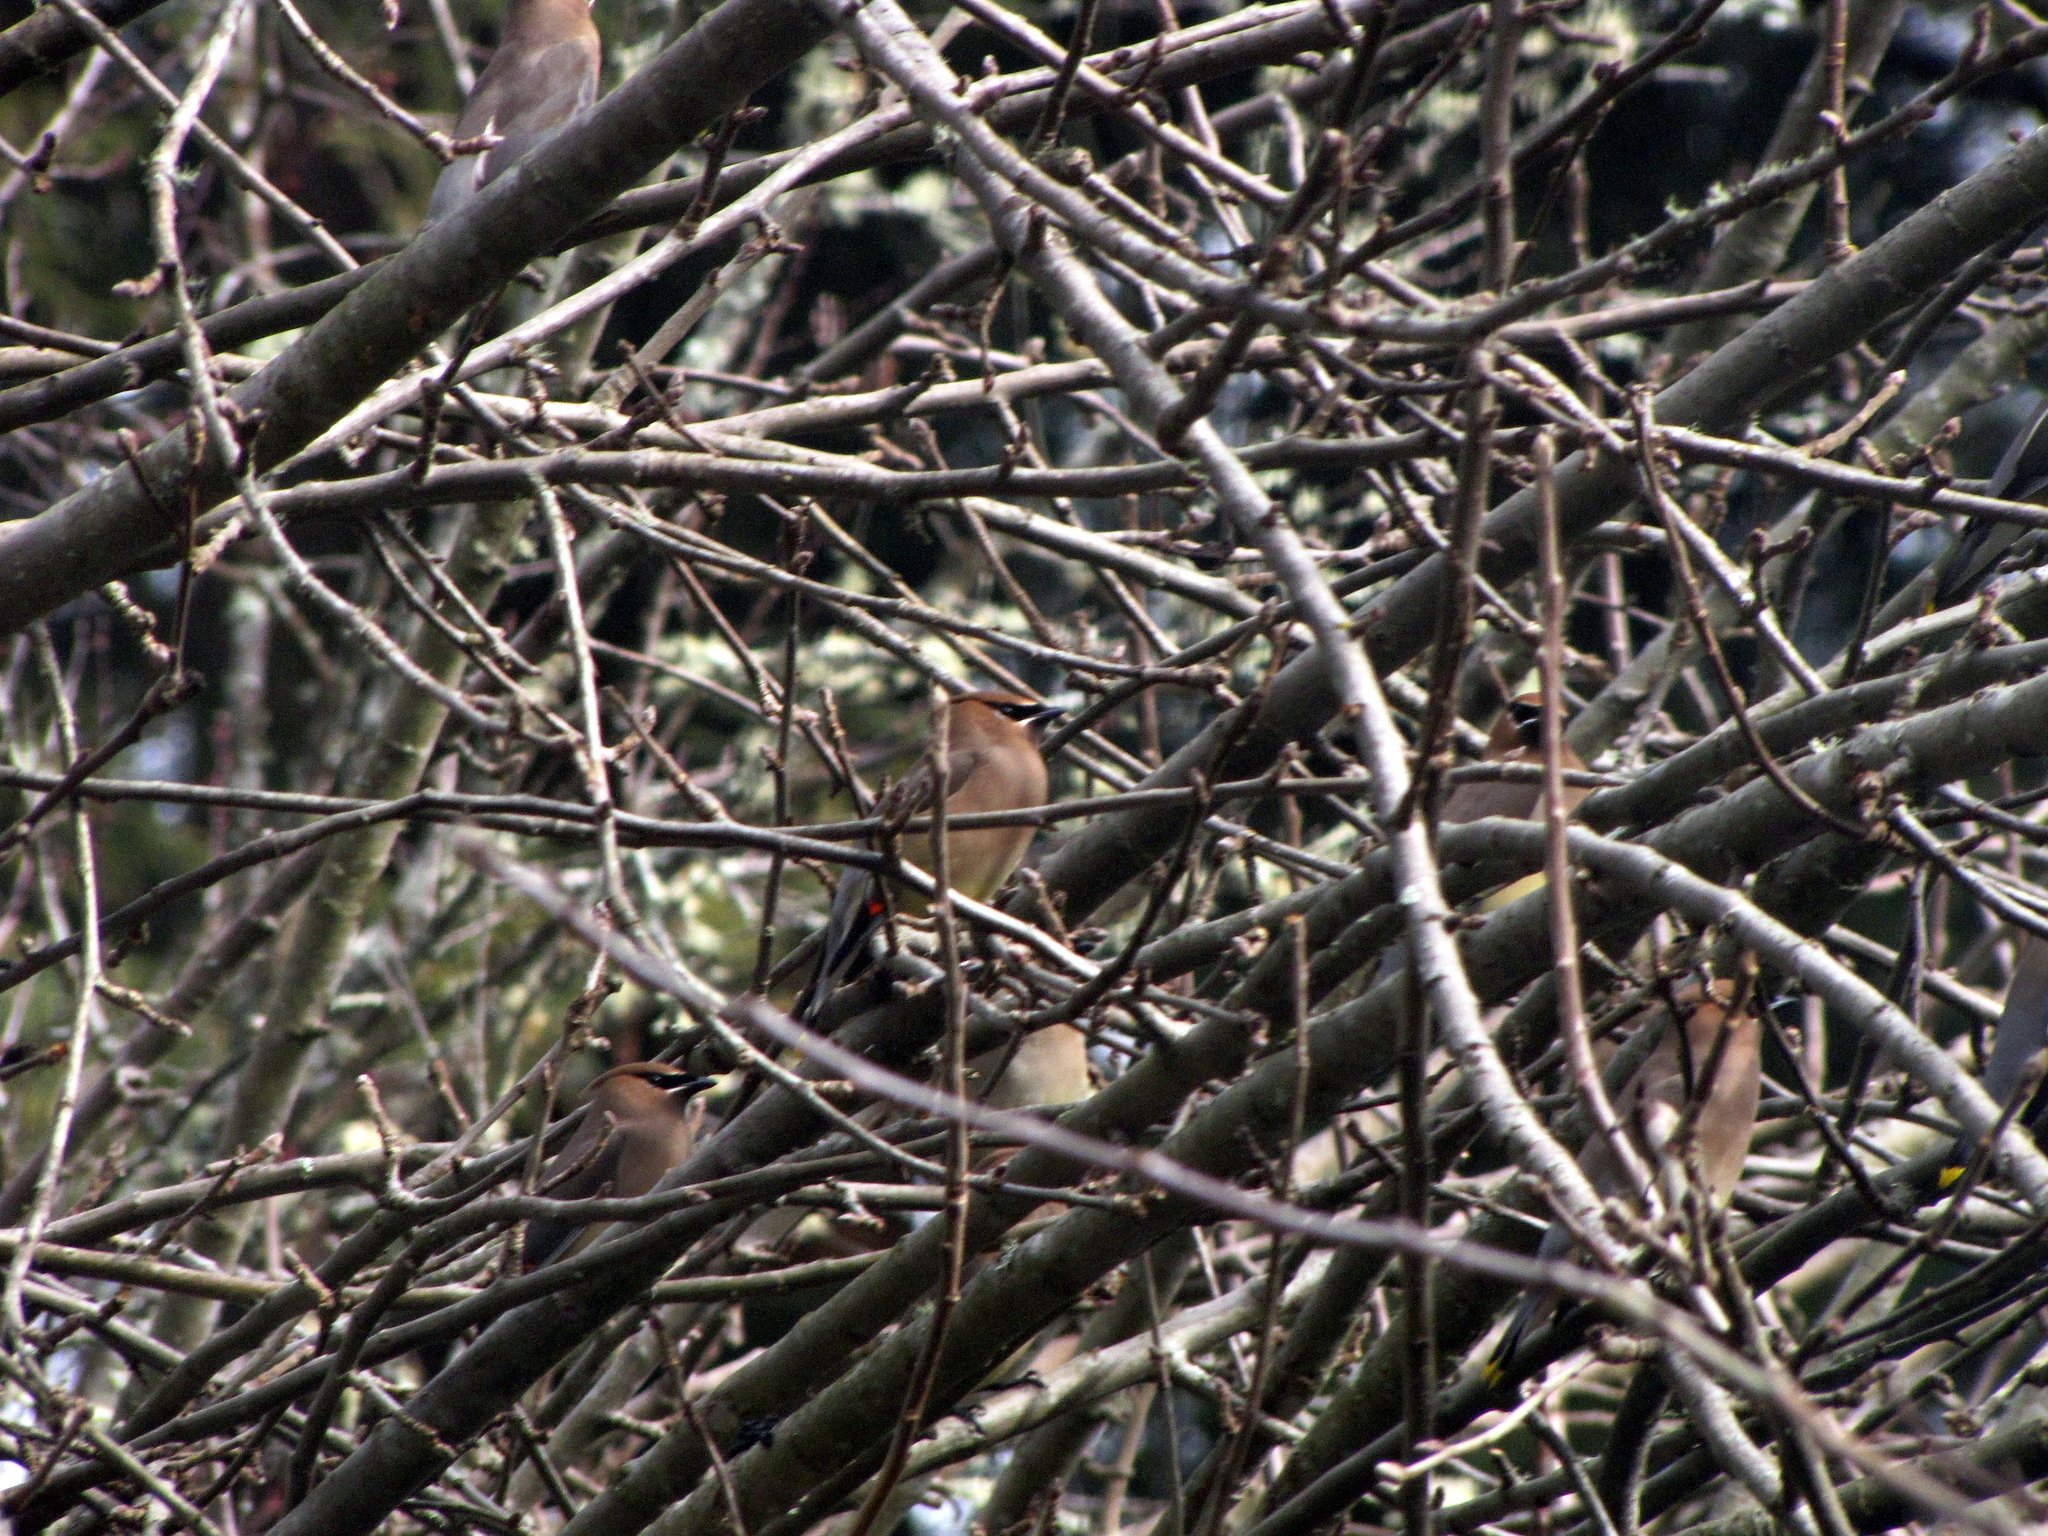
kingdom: Animalia
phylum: Chordata
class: Aves
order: Passeriformes
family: Bombycillidae
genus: Bombycilla
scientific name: Bombycilla cedrorum
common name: Cedar waxwing
